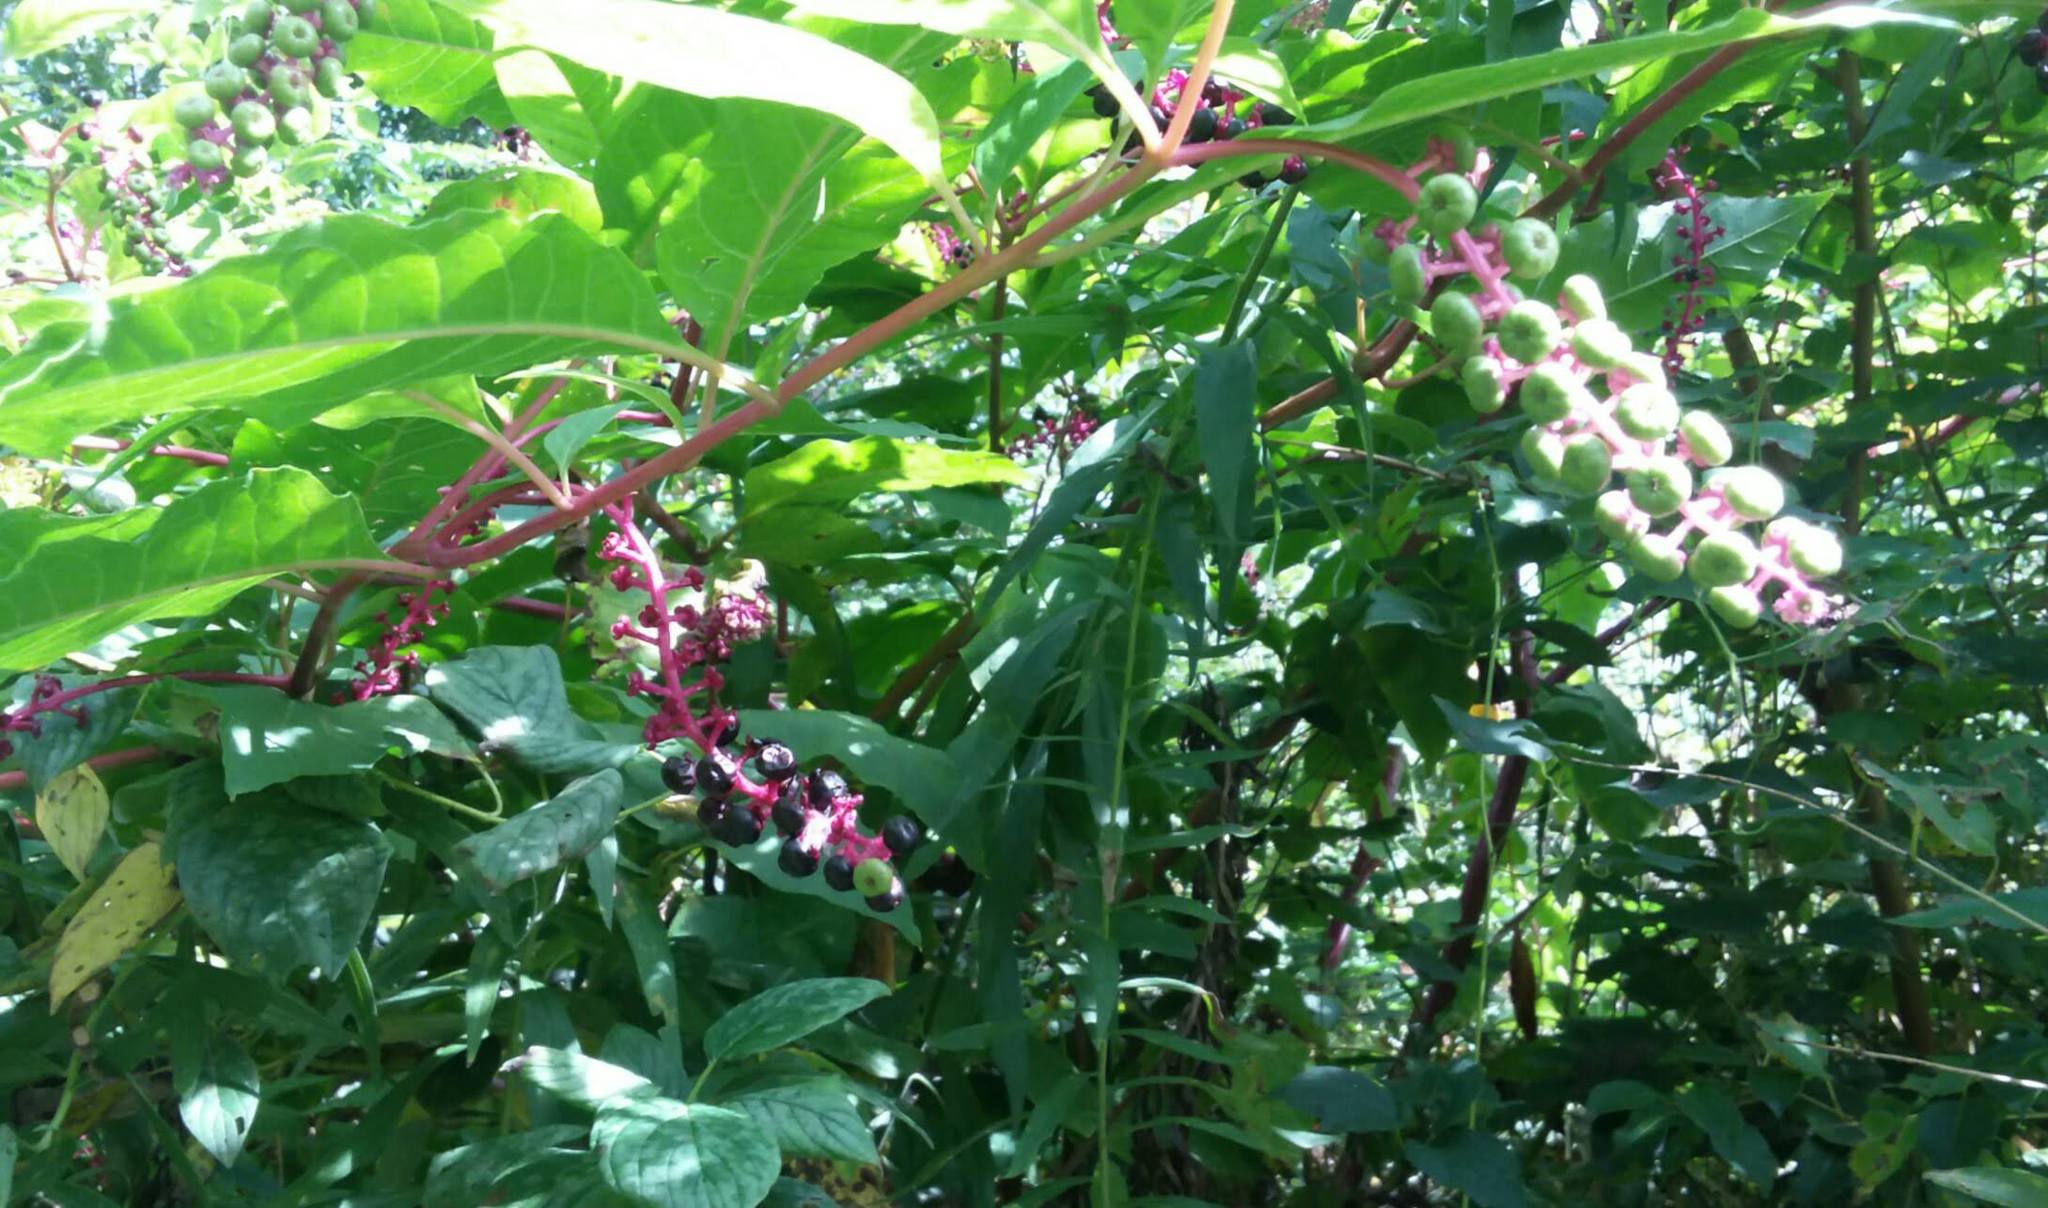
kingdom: Plantae
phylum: Tracheophyta
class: Magnoliopsida
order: Caryophyllales
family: Phytolaccaceae
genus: Phytolacca
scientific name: Phytolacca americana
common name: American pokeweed
